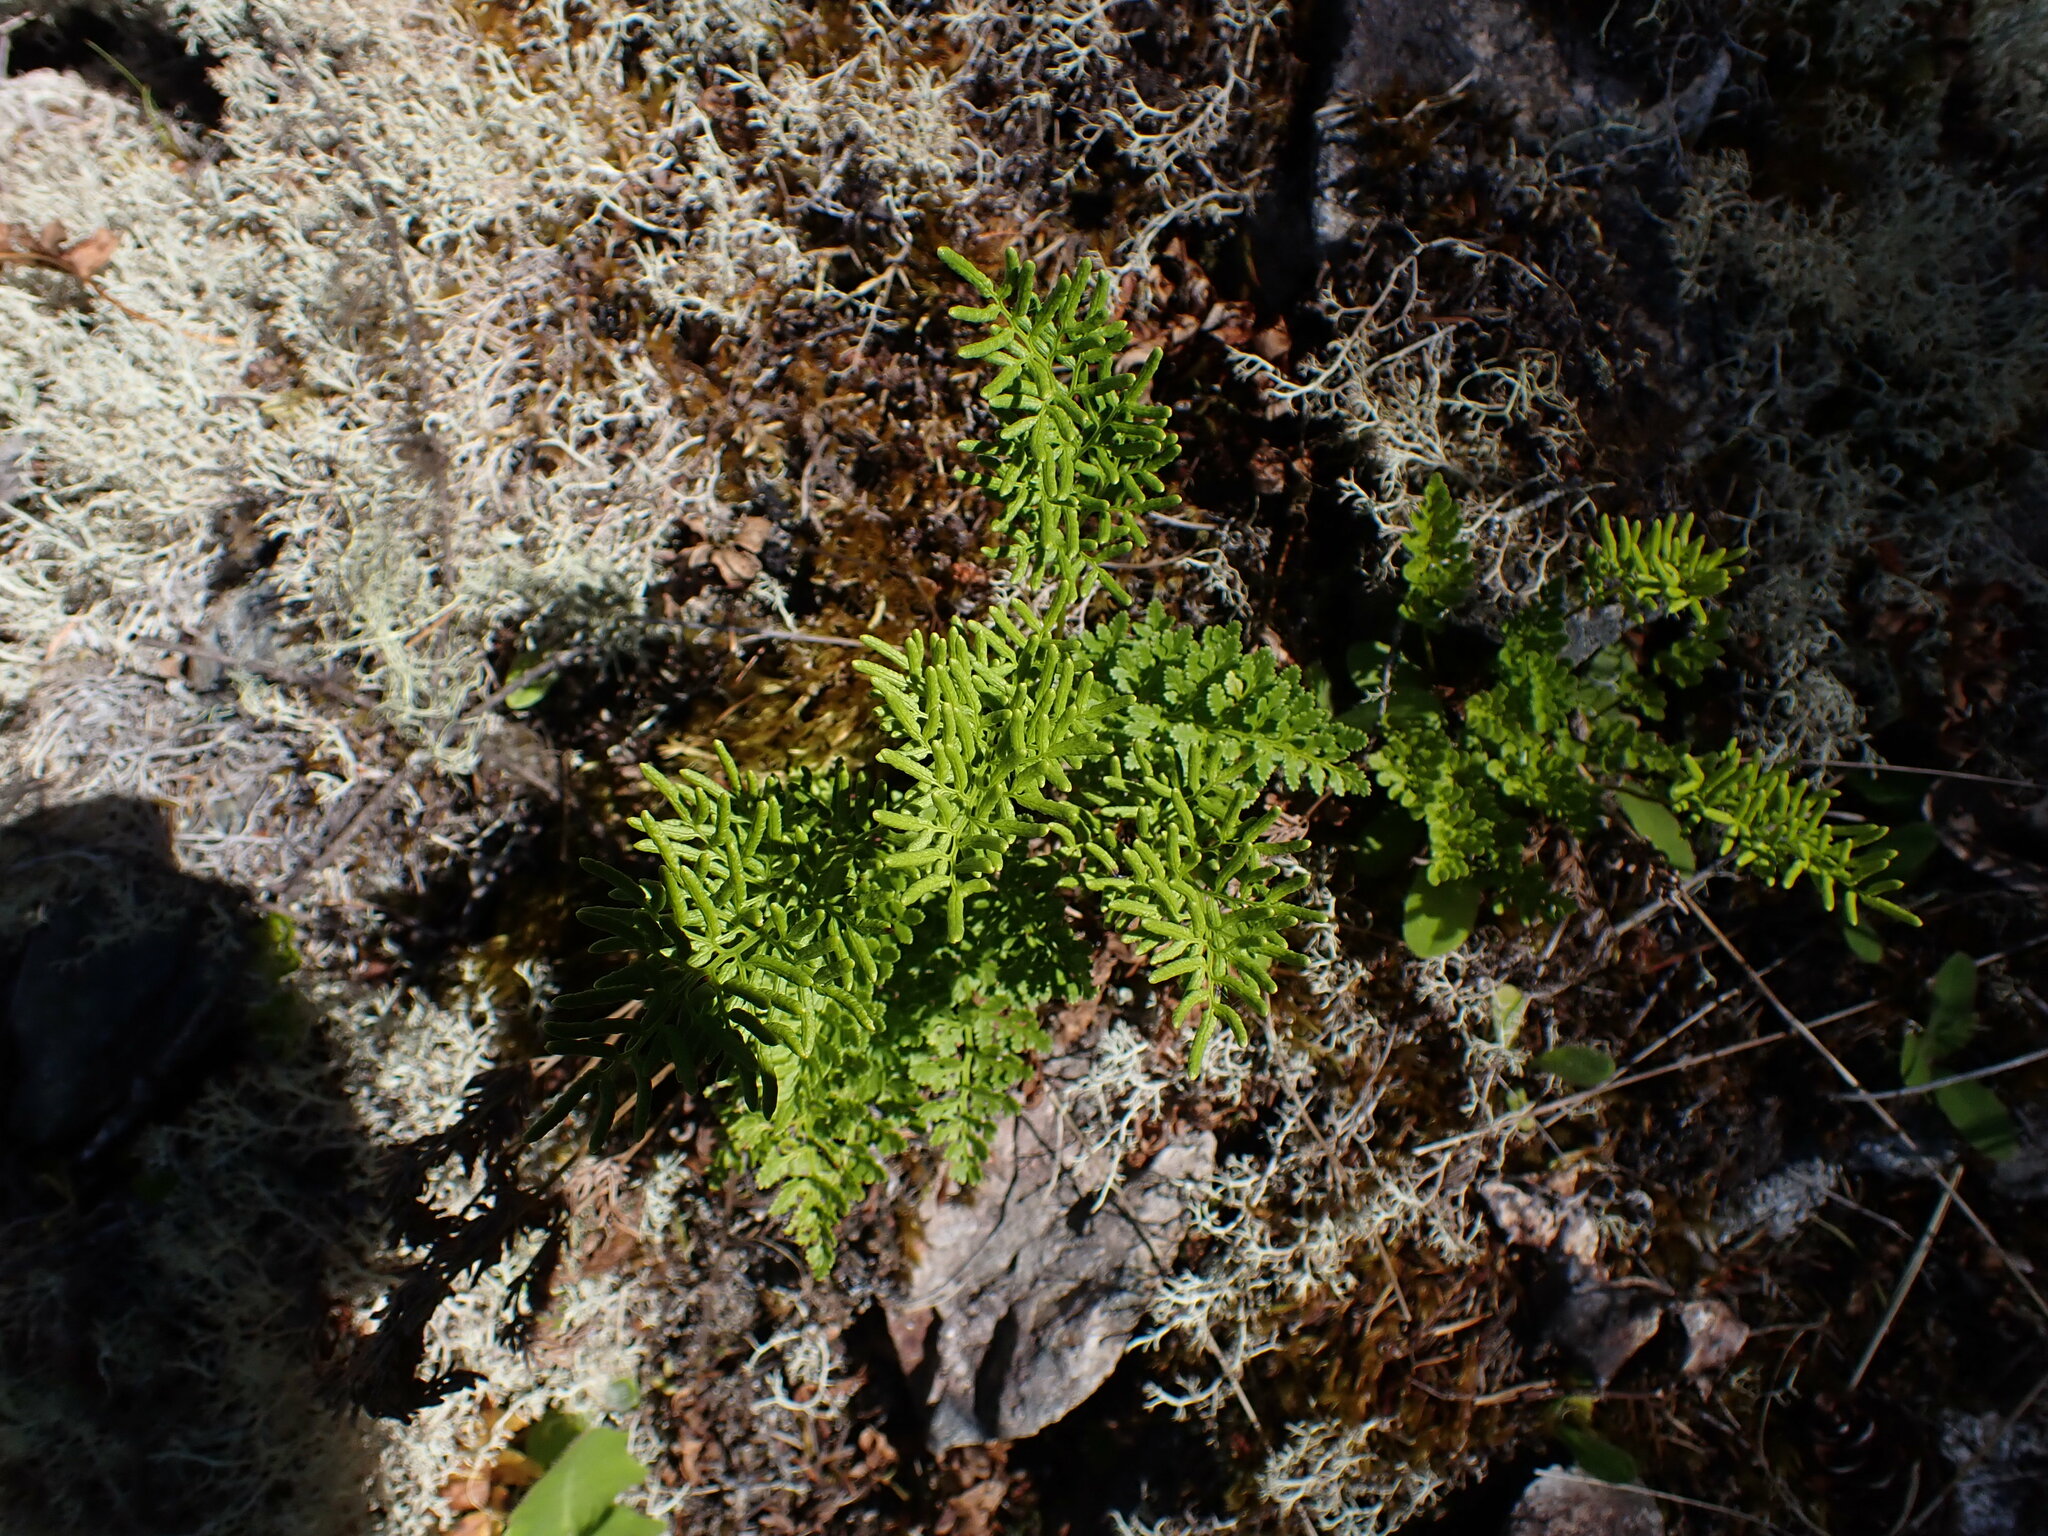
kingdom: Plantae
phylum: Tracheophyta
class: Polypodiopsida
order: Polypodiales
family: Pteridaceae
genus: Cryptogramma
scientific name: Cryptogramma acrostichoides
